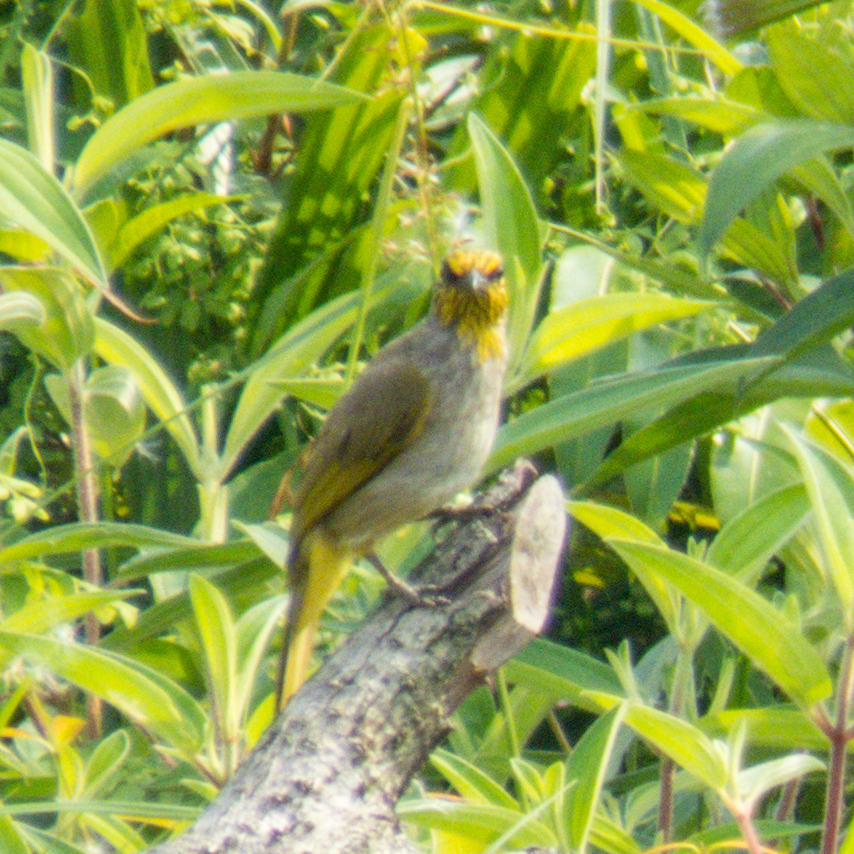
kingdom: Animalia
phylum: Chordata
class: Aves
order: Passeriformes
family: Pycnonotidae
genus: Pycnonotus
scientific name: Pycnonotus finlaysoni
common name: Stripe-throated bulbul
